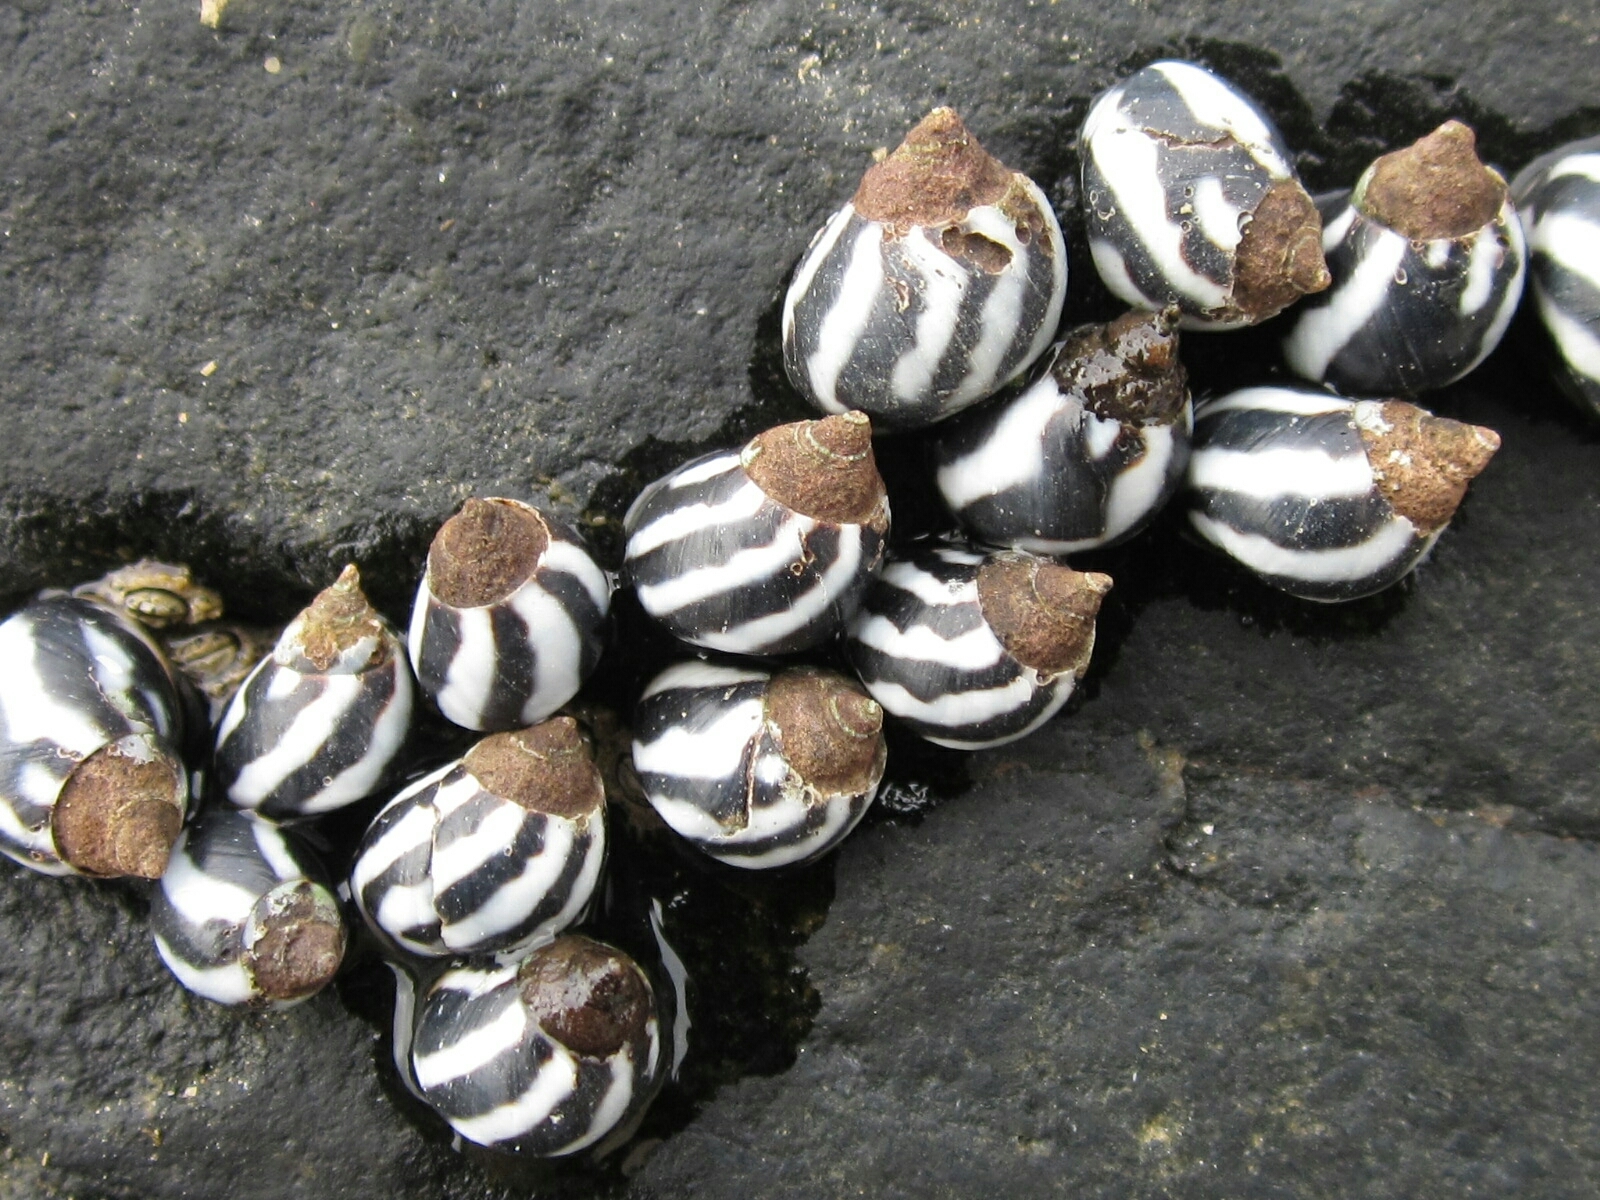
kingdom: Animalia
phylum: Mollusca
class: Gastropoda
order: Littorinimorpha
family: Littorinidae
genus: Echinolittorina
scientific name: Echinolittorina peruviana
